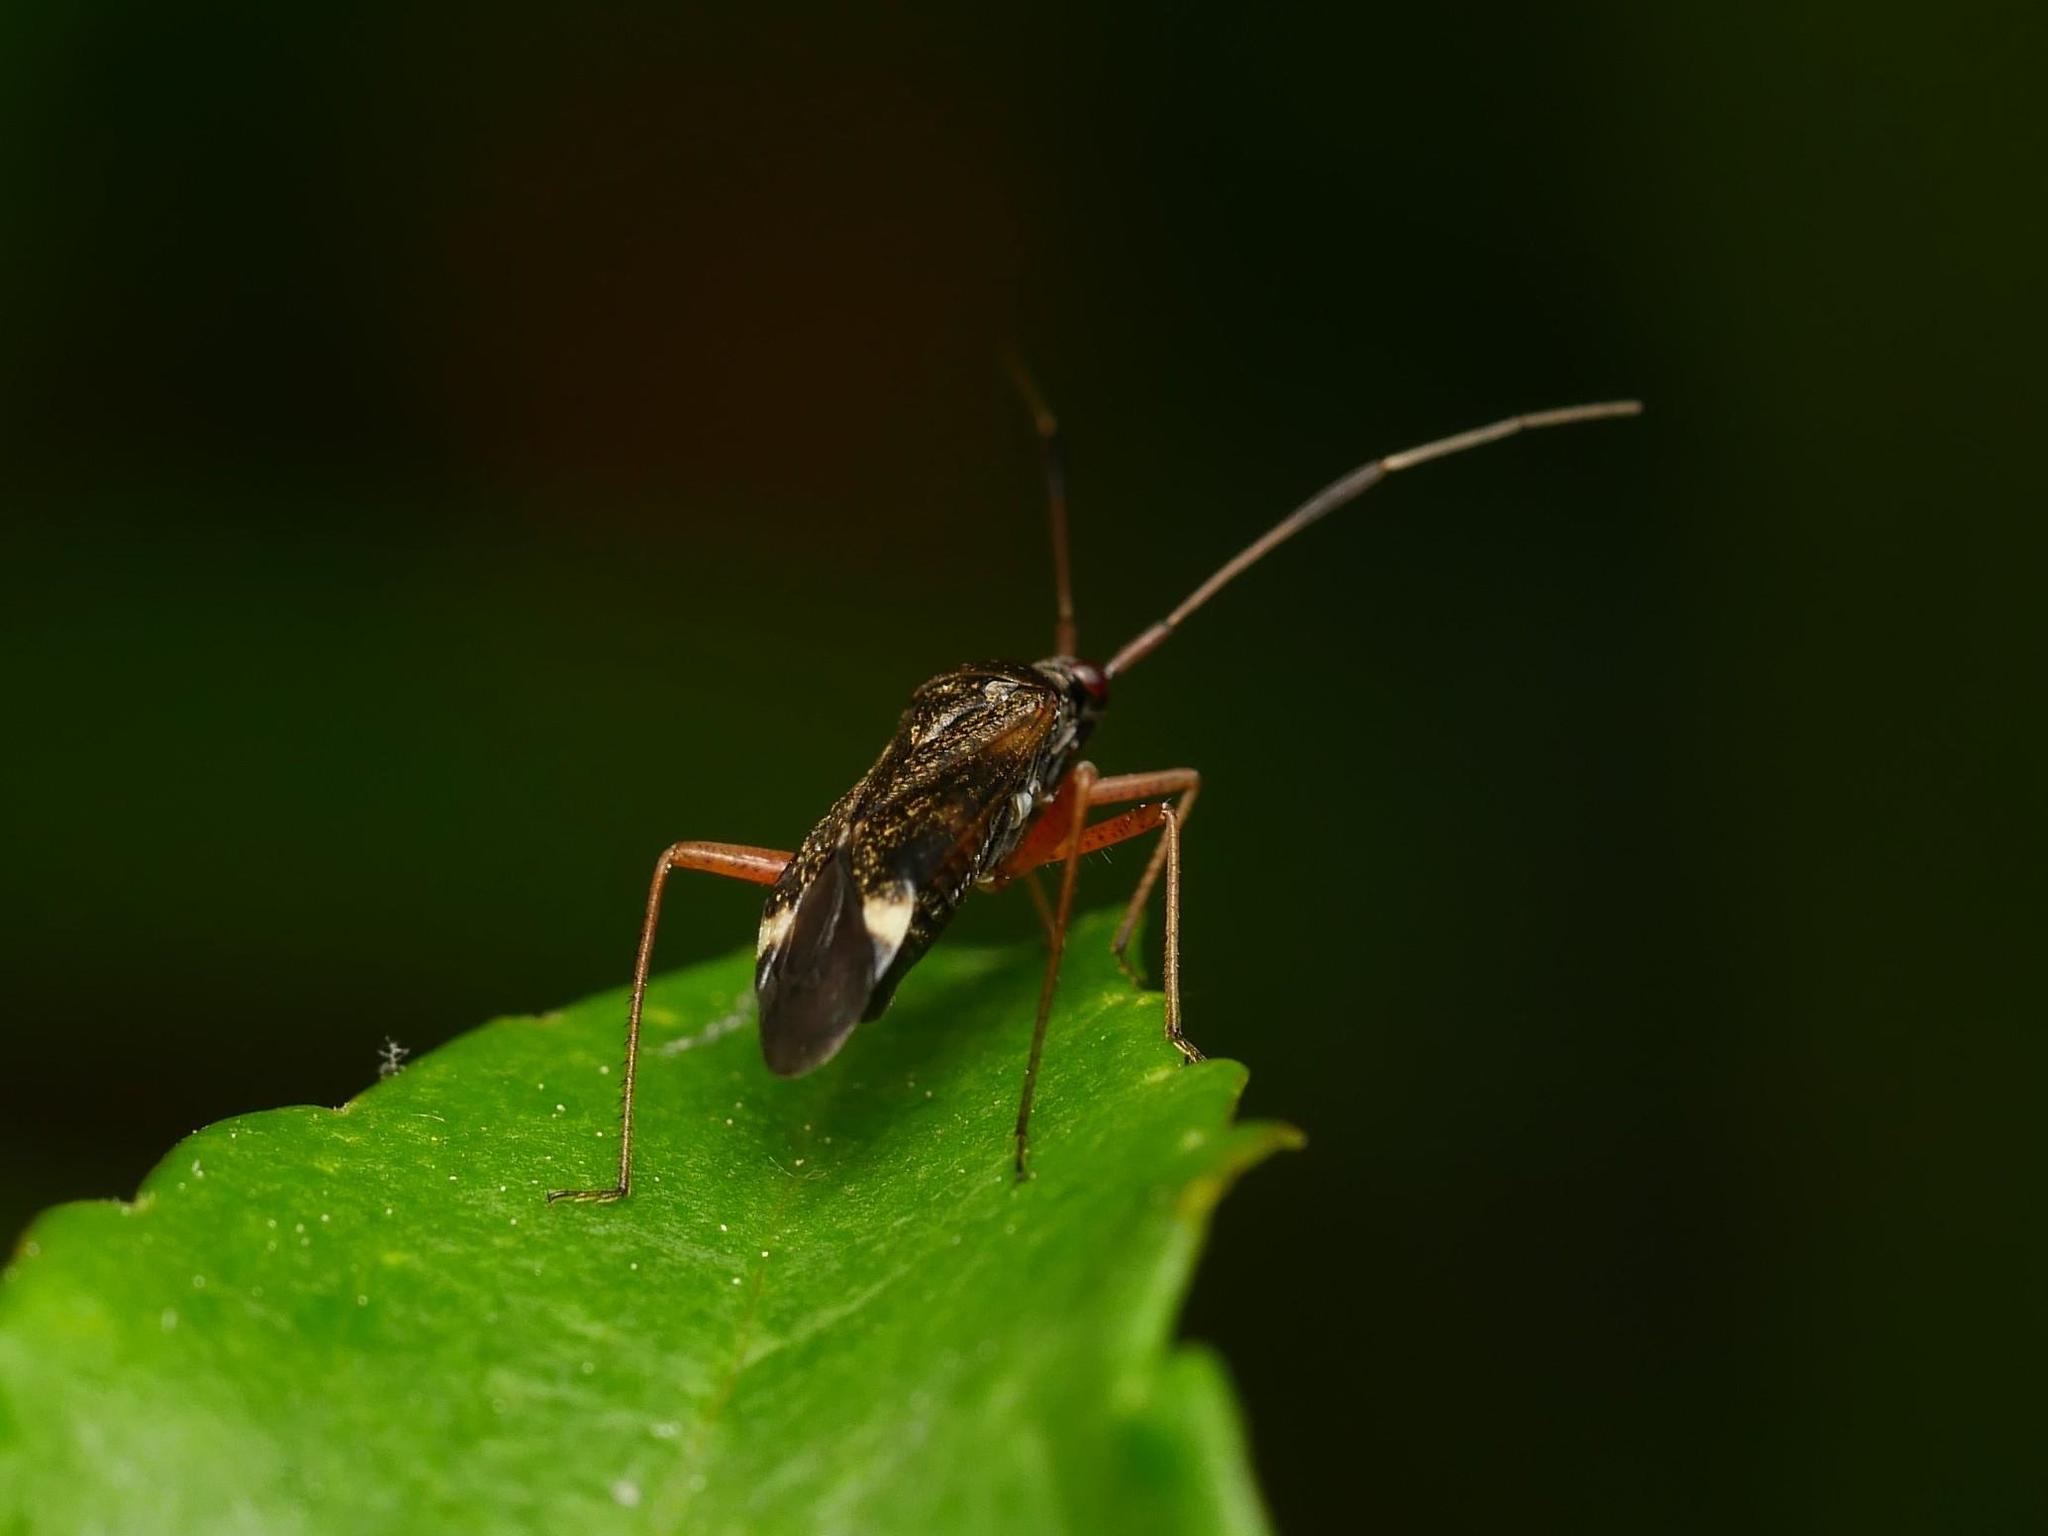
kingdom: Animalia
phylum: Arthropoda
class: Insecta
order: Hemiptera
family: Miridae
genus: Closterotomus
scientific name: Closterotomus biclavatus
